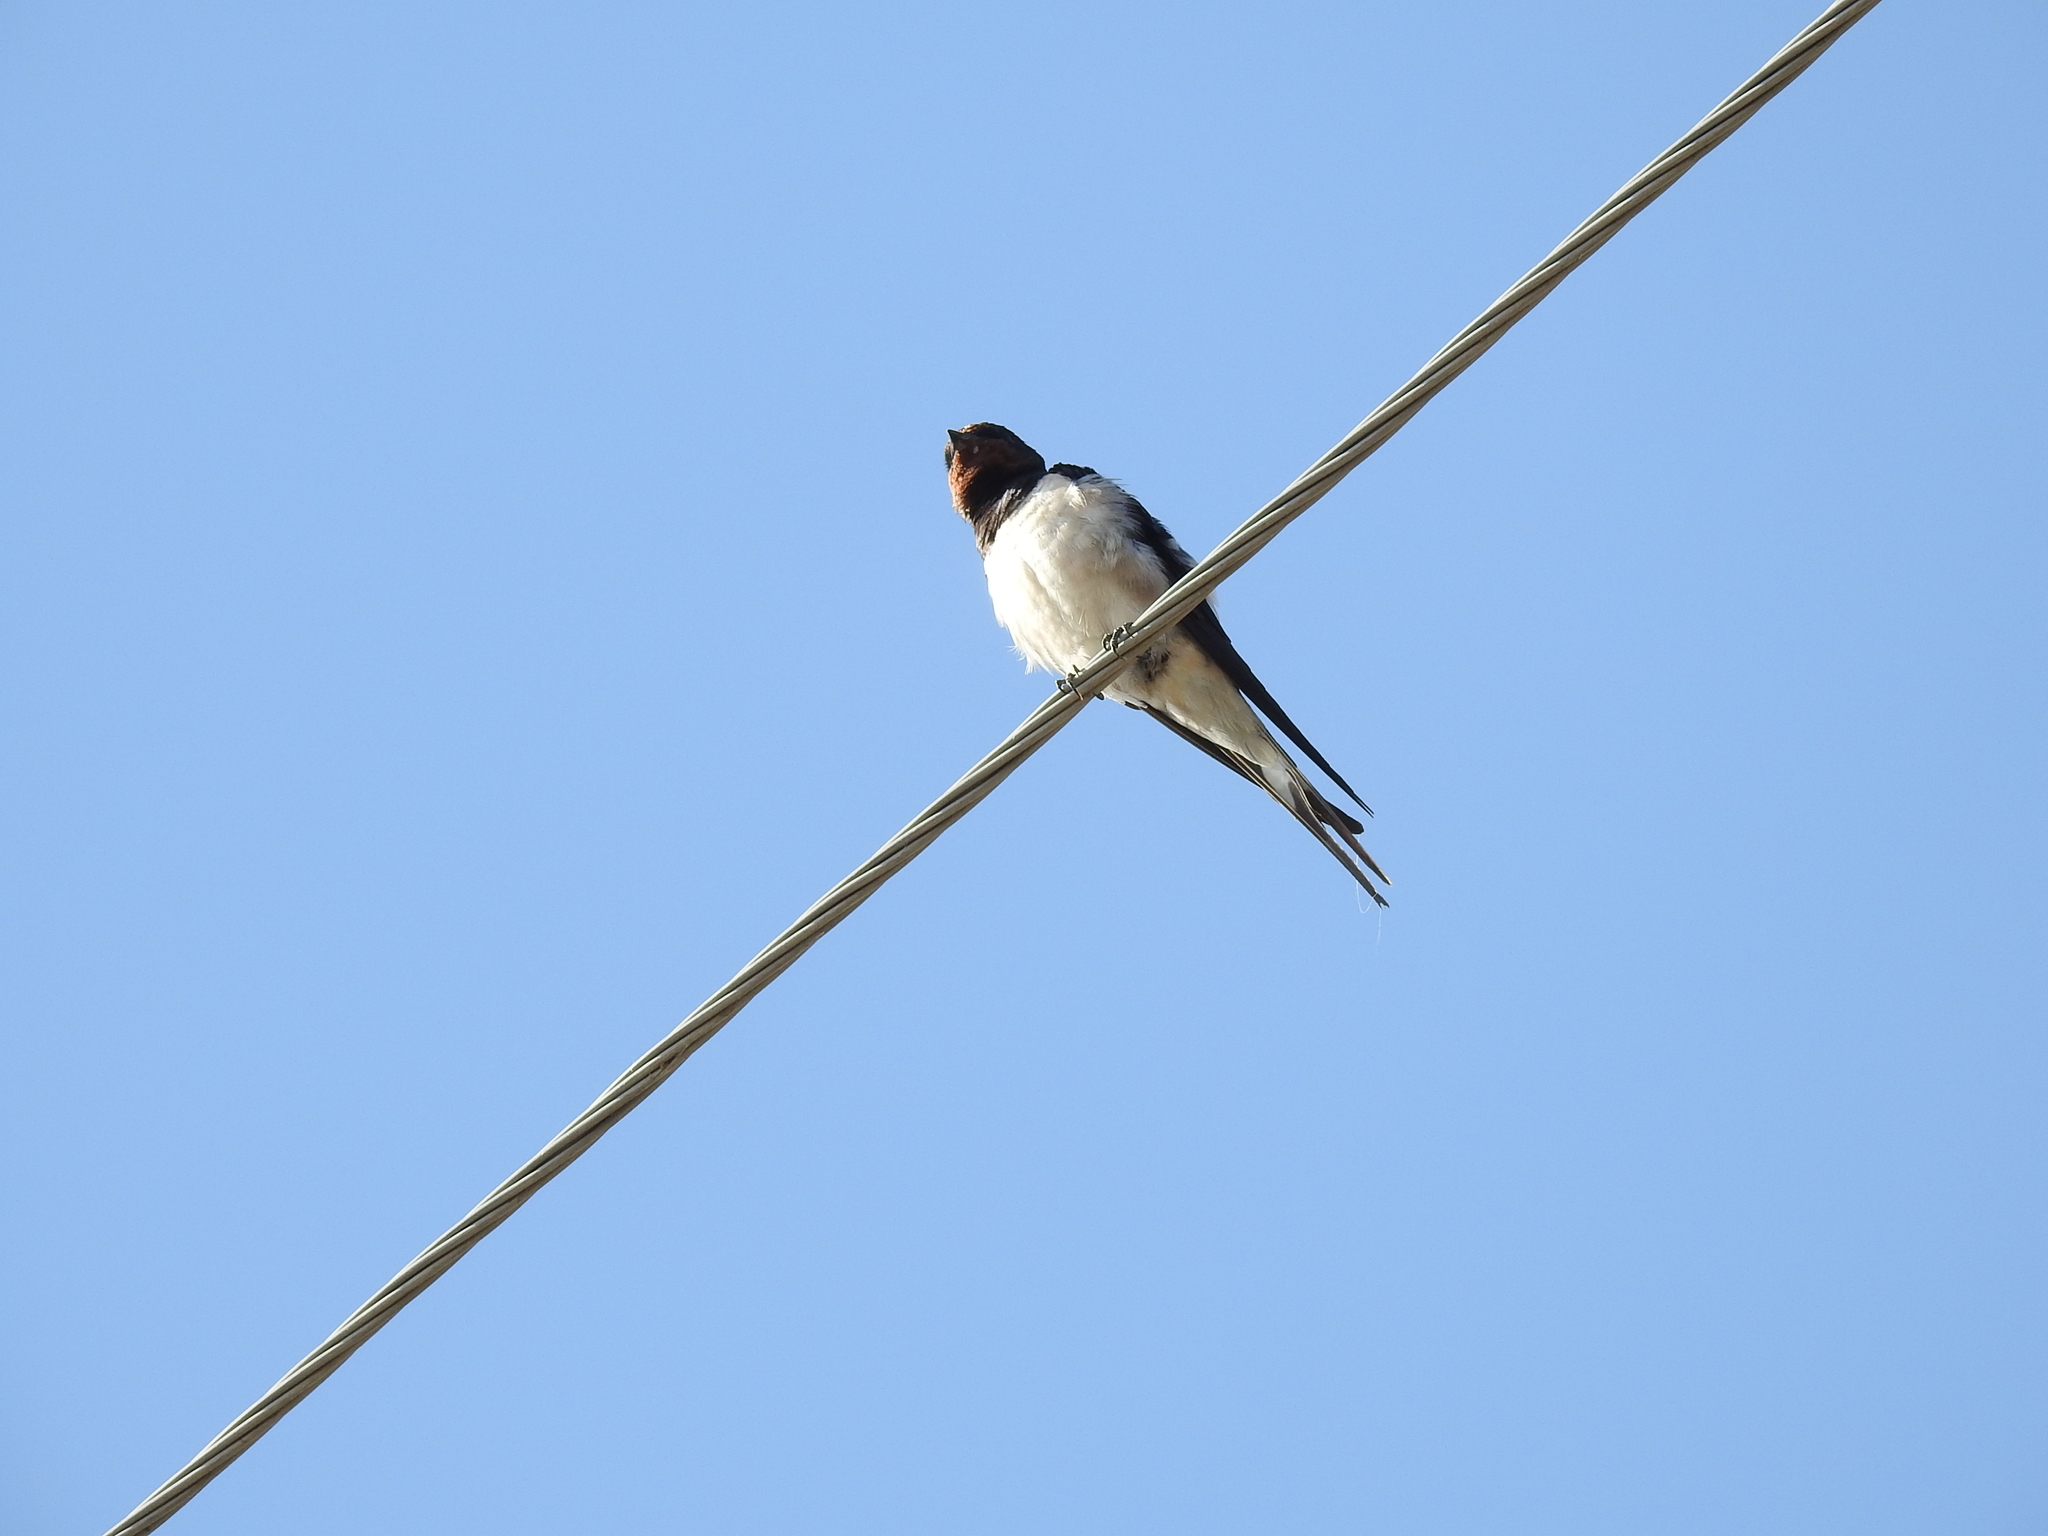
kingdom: Animalia
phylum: Chordata
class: Aves
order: Passeriformes
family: Hirundinidae
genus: Hirundo
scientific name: Hirundo rustica
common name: Barn swallow
